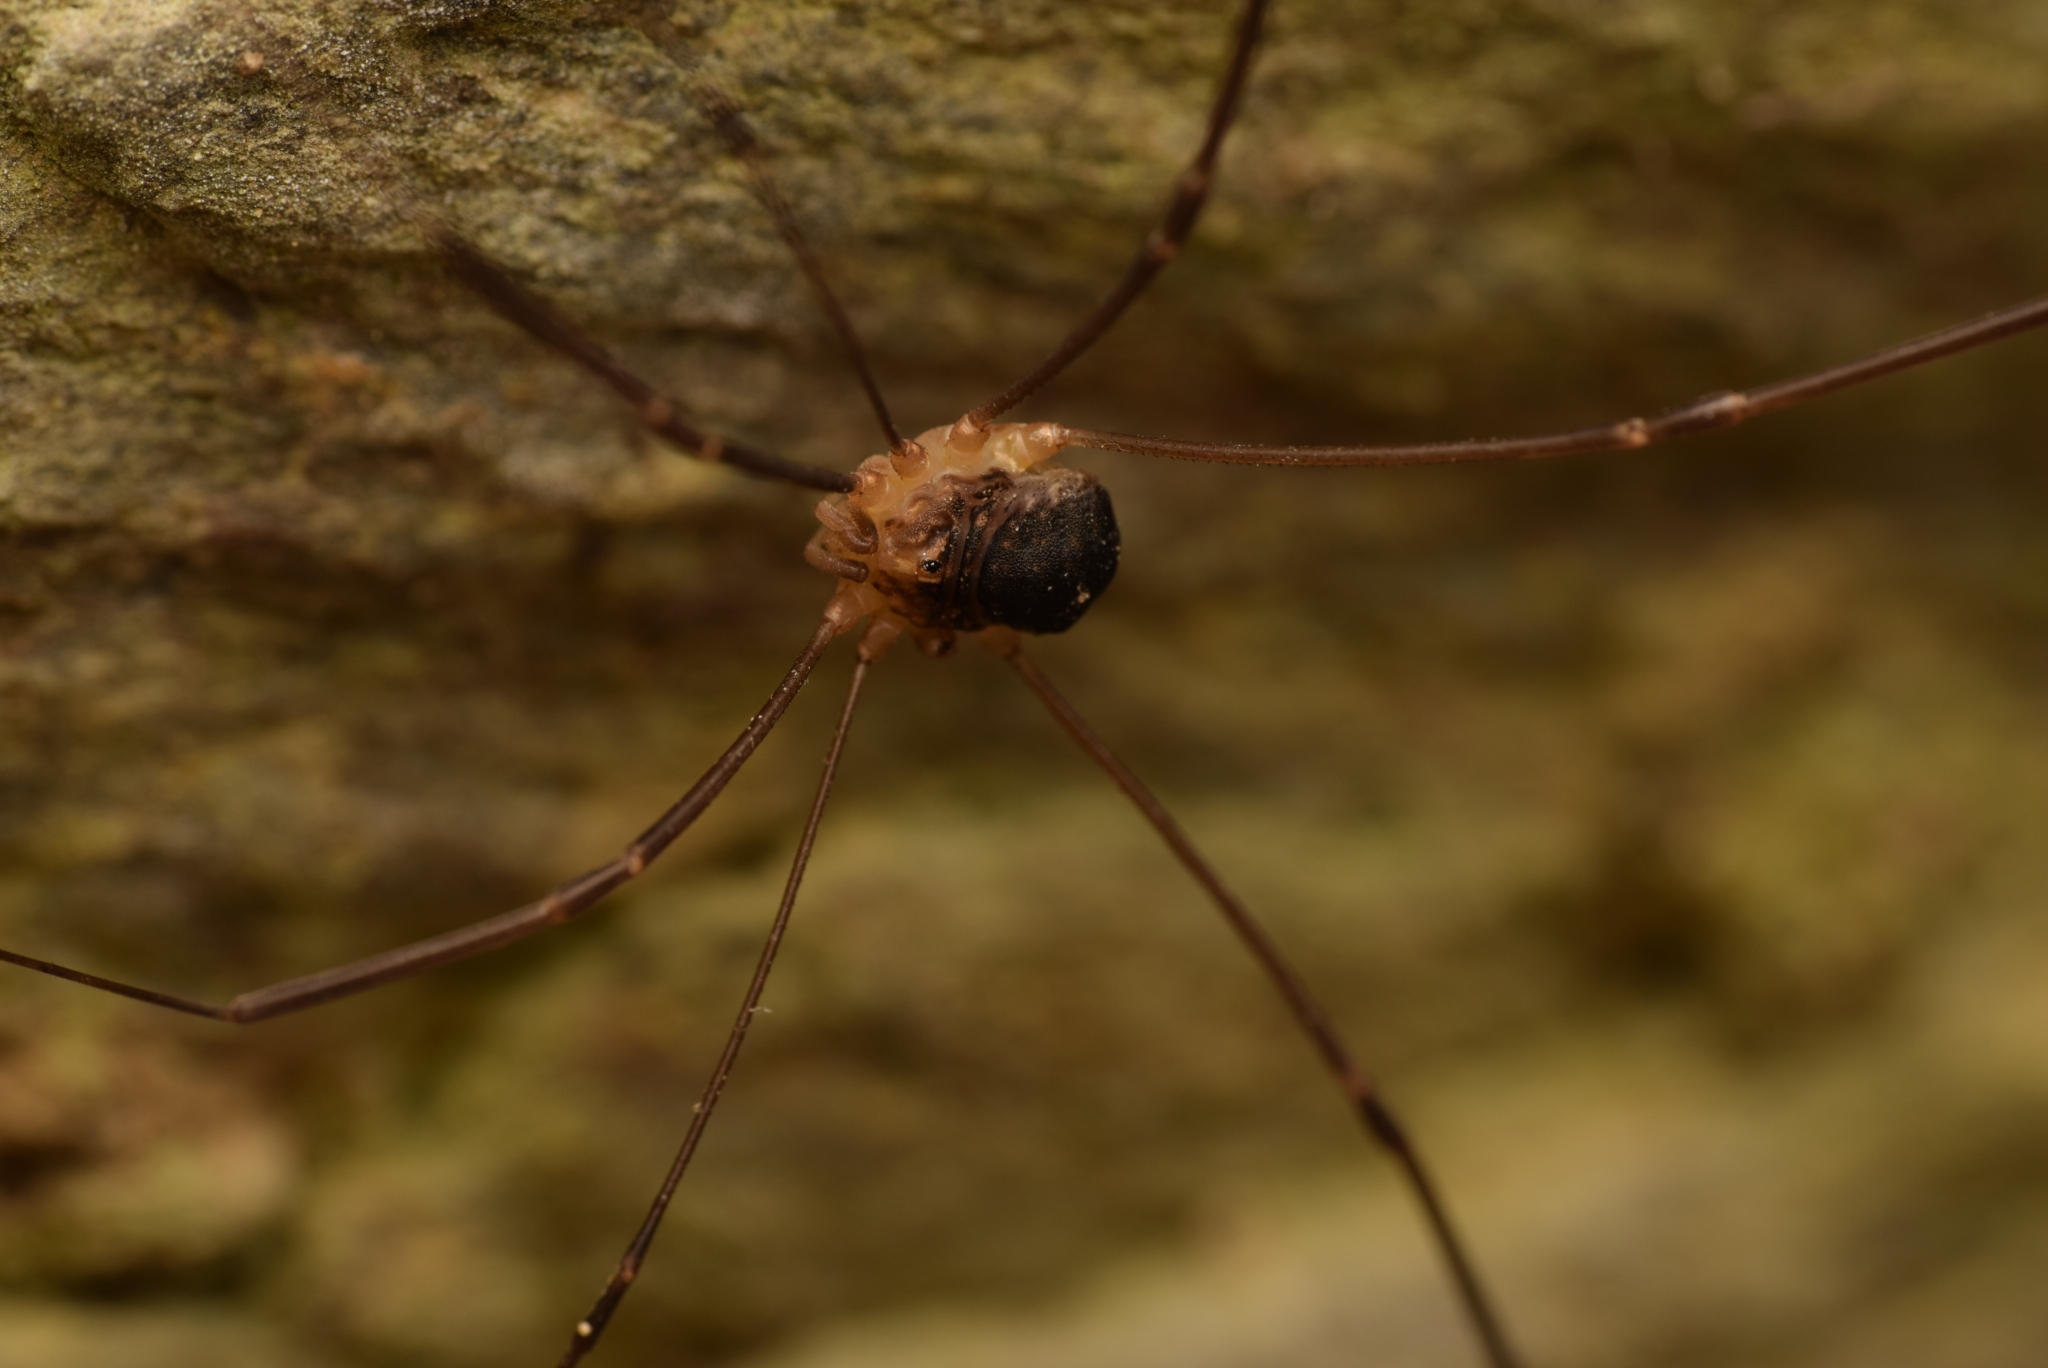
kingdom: Animalia
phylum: Arthropoda
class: Arachnida
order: Opiliones
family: Sclerosomatidae
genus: Nelima
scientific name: Nelima gothica
